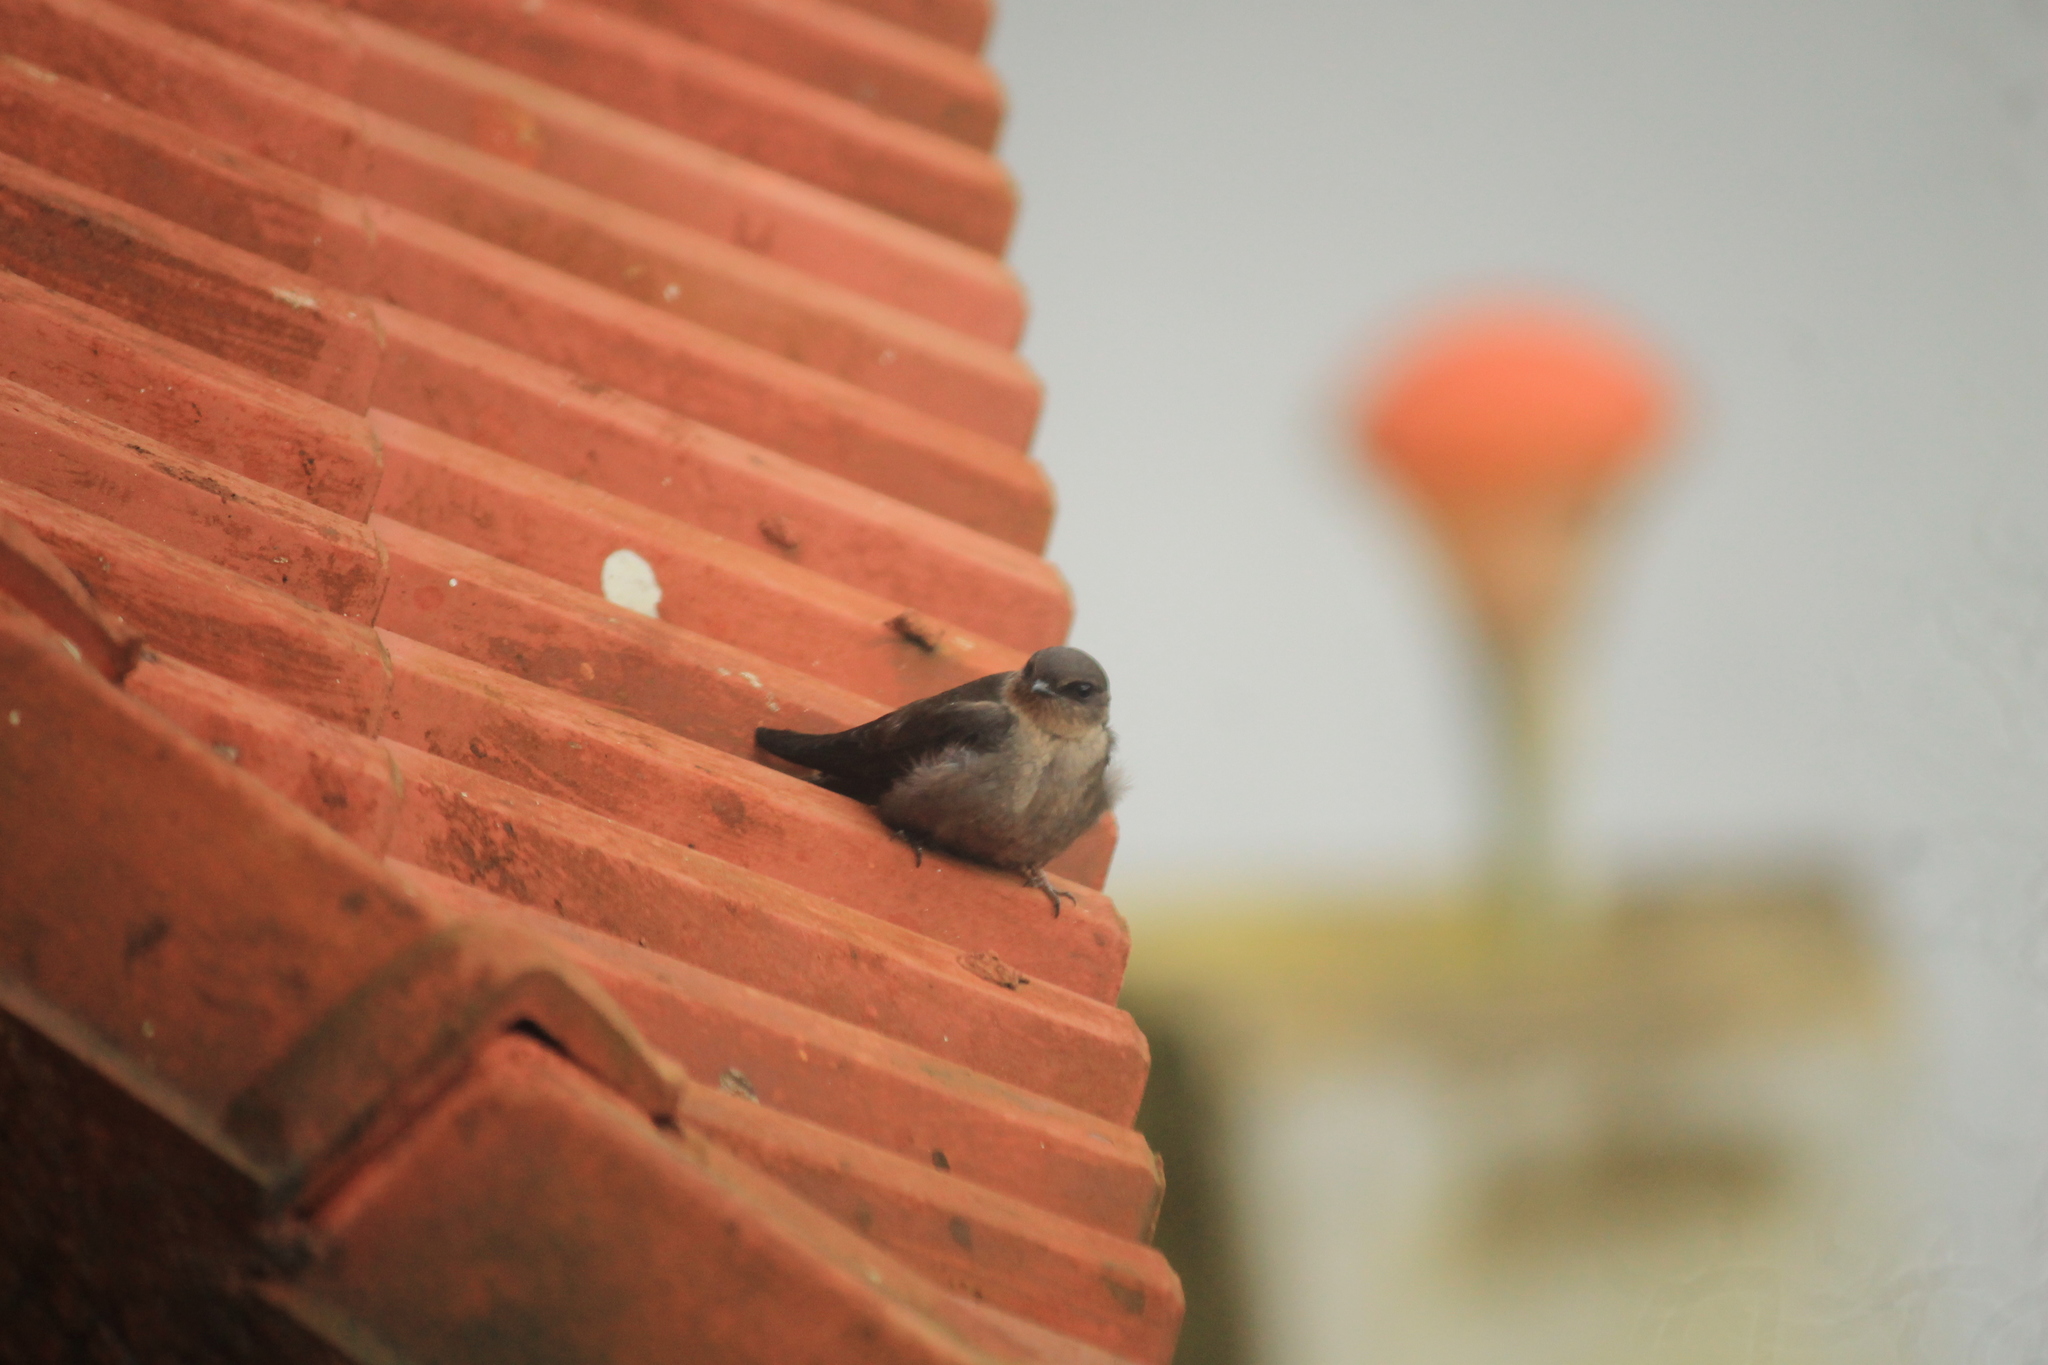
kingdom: Animalia
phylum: Chordata
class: Aves
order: Passeriformes
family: Hirundinidae
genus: Ptyonoprogne
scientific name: Ptyonoprogne concolor
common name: Dusky crag-martin
